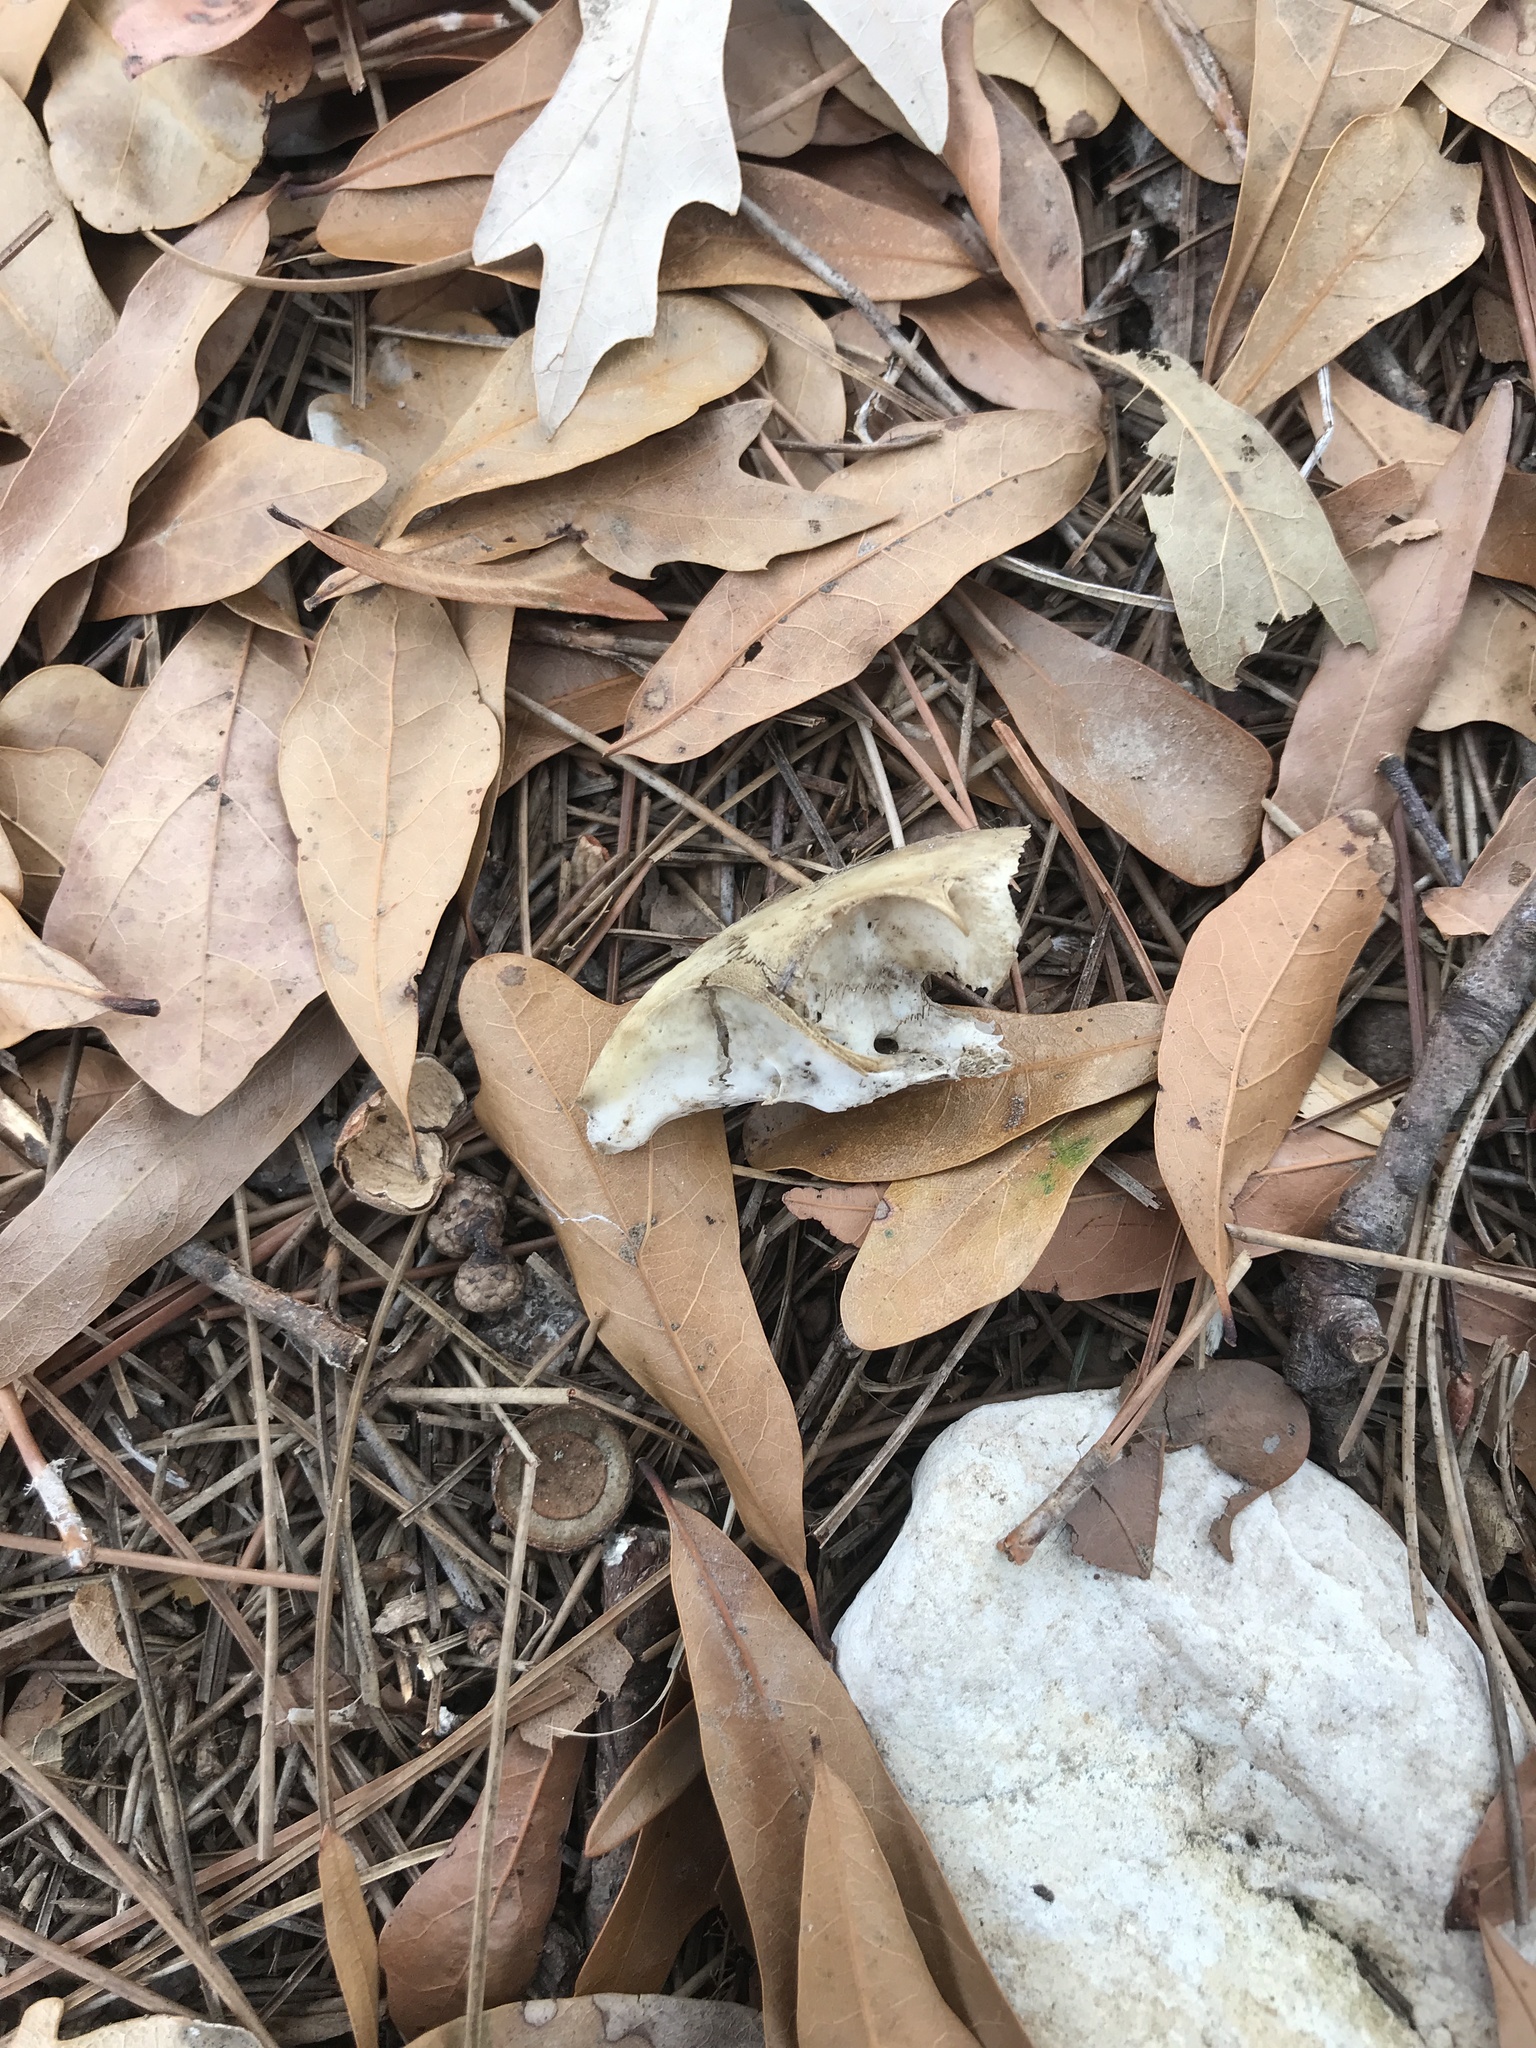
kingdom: Animalia
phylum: Chordata
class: Mammalia
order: Rodentia
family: Sciuridae
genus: Sciurus
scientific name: Sciurus carolinensis
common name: Eastern gray squirrel
